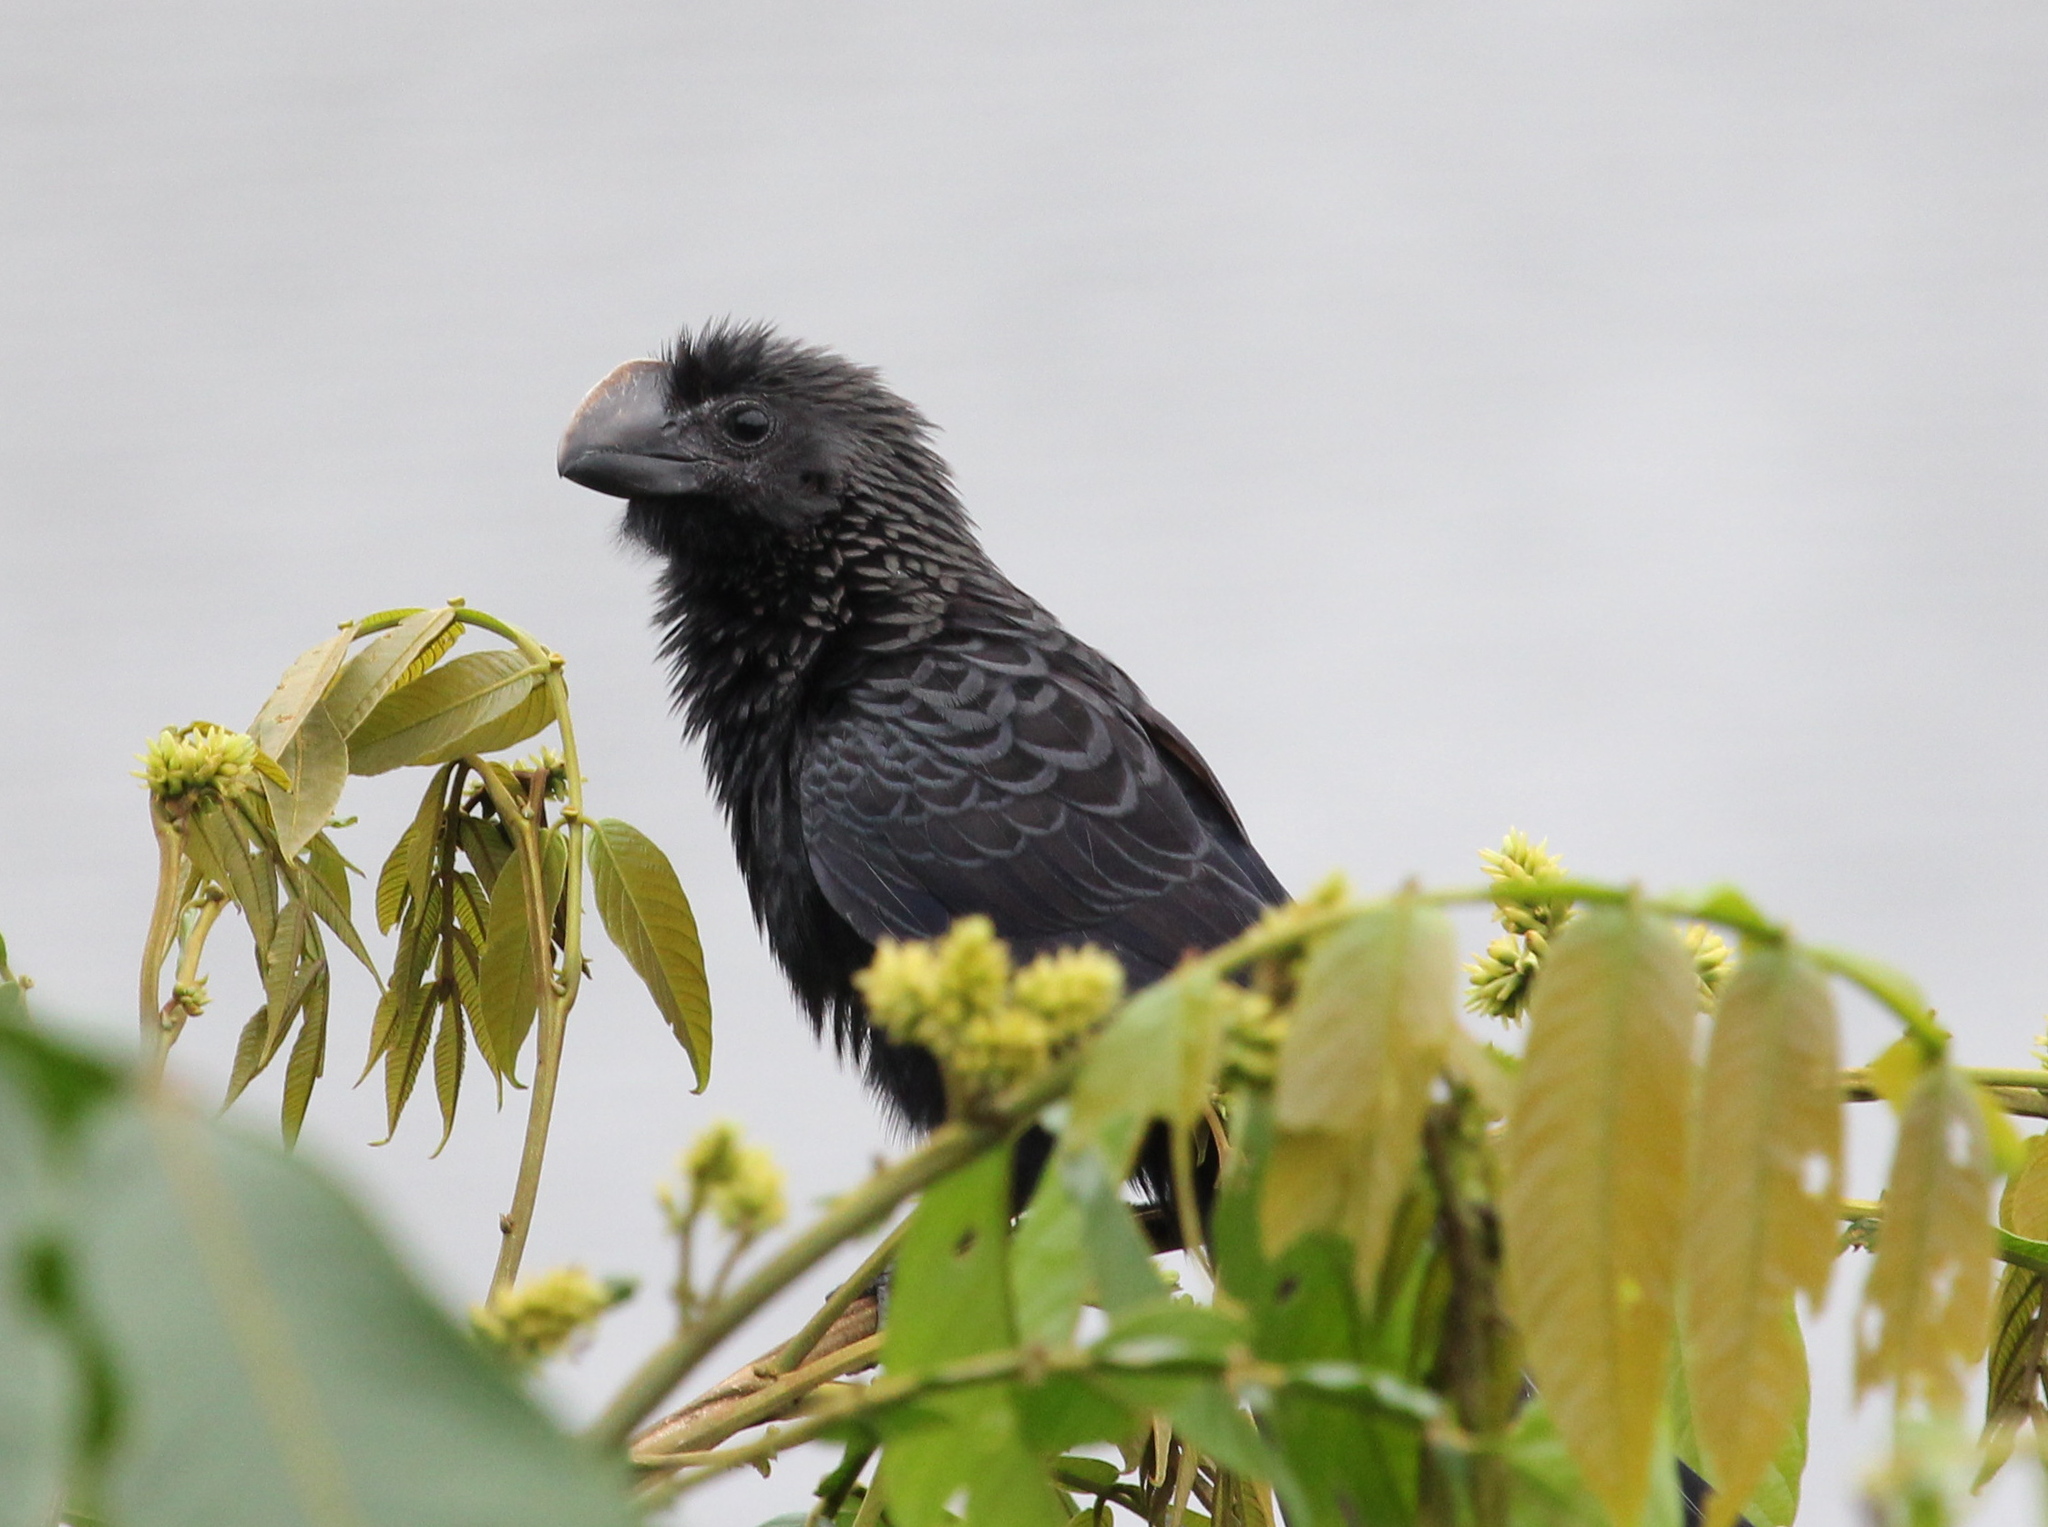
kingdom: Animalia
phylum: Chordata
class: Aves
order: Cuculiformes
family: Cuculidae
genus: Crotophaga
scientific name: Crotophaga ani
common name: Smooth-billed ani
